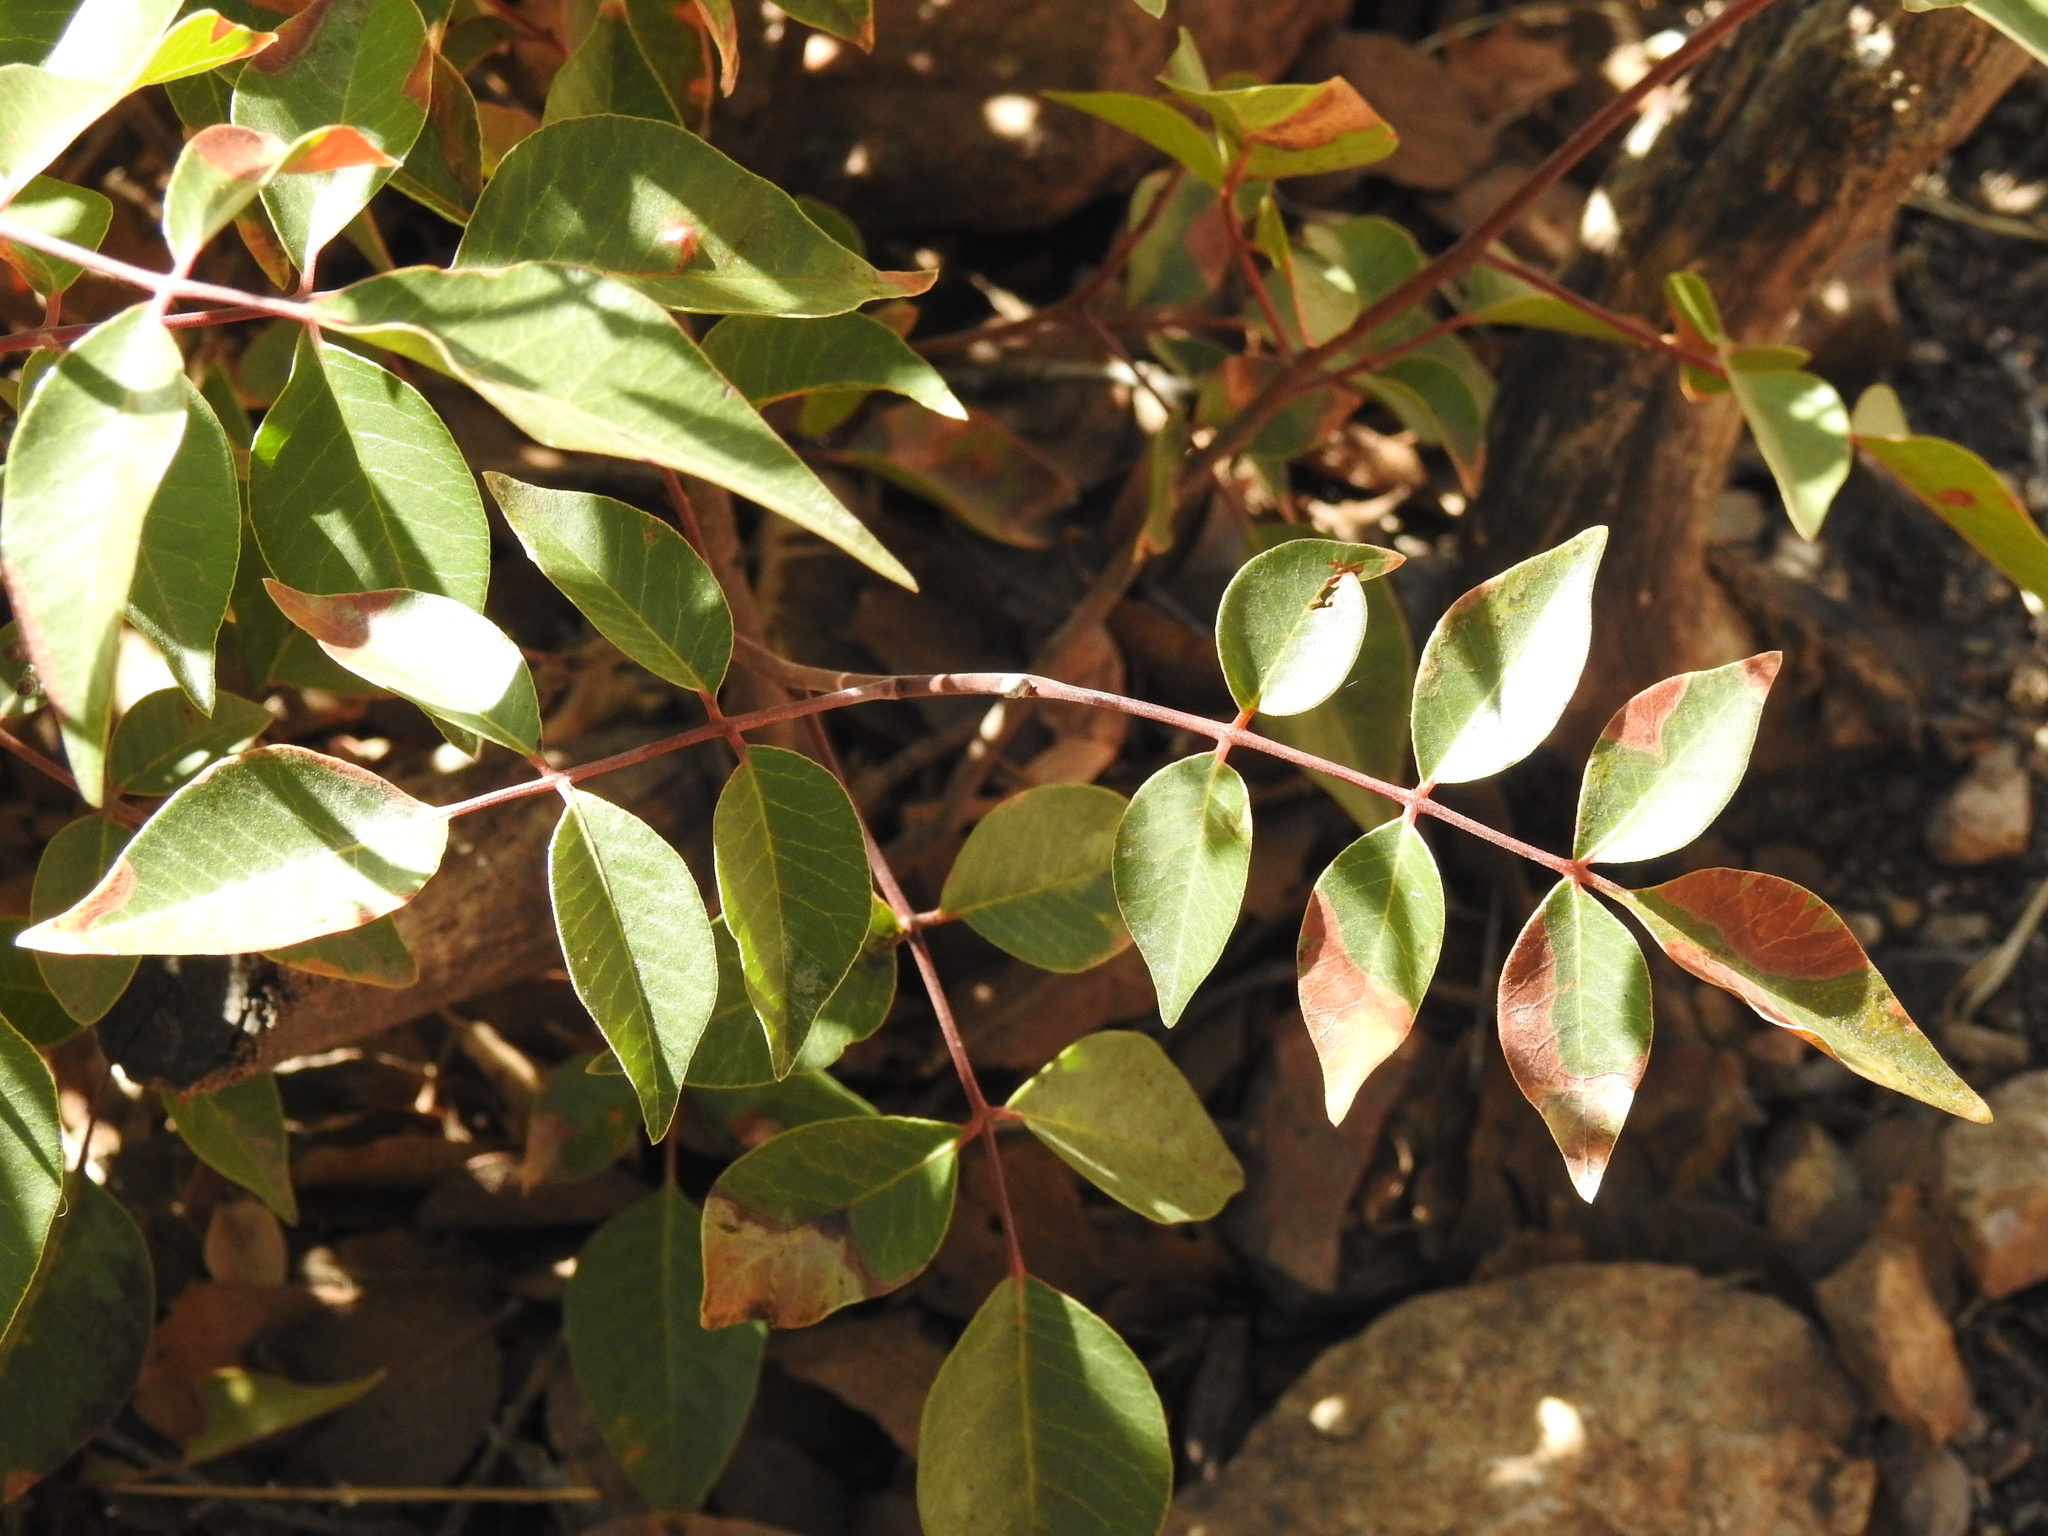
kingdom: Plantae
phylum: Tracheophyta
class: Magnoliopsida
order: Sapindales
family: Anacardiaceae
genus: Rhus
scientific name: Rhus virens
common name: Evergreen sumac
